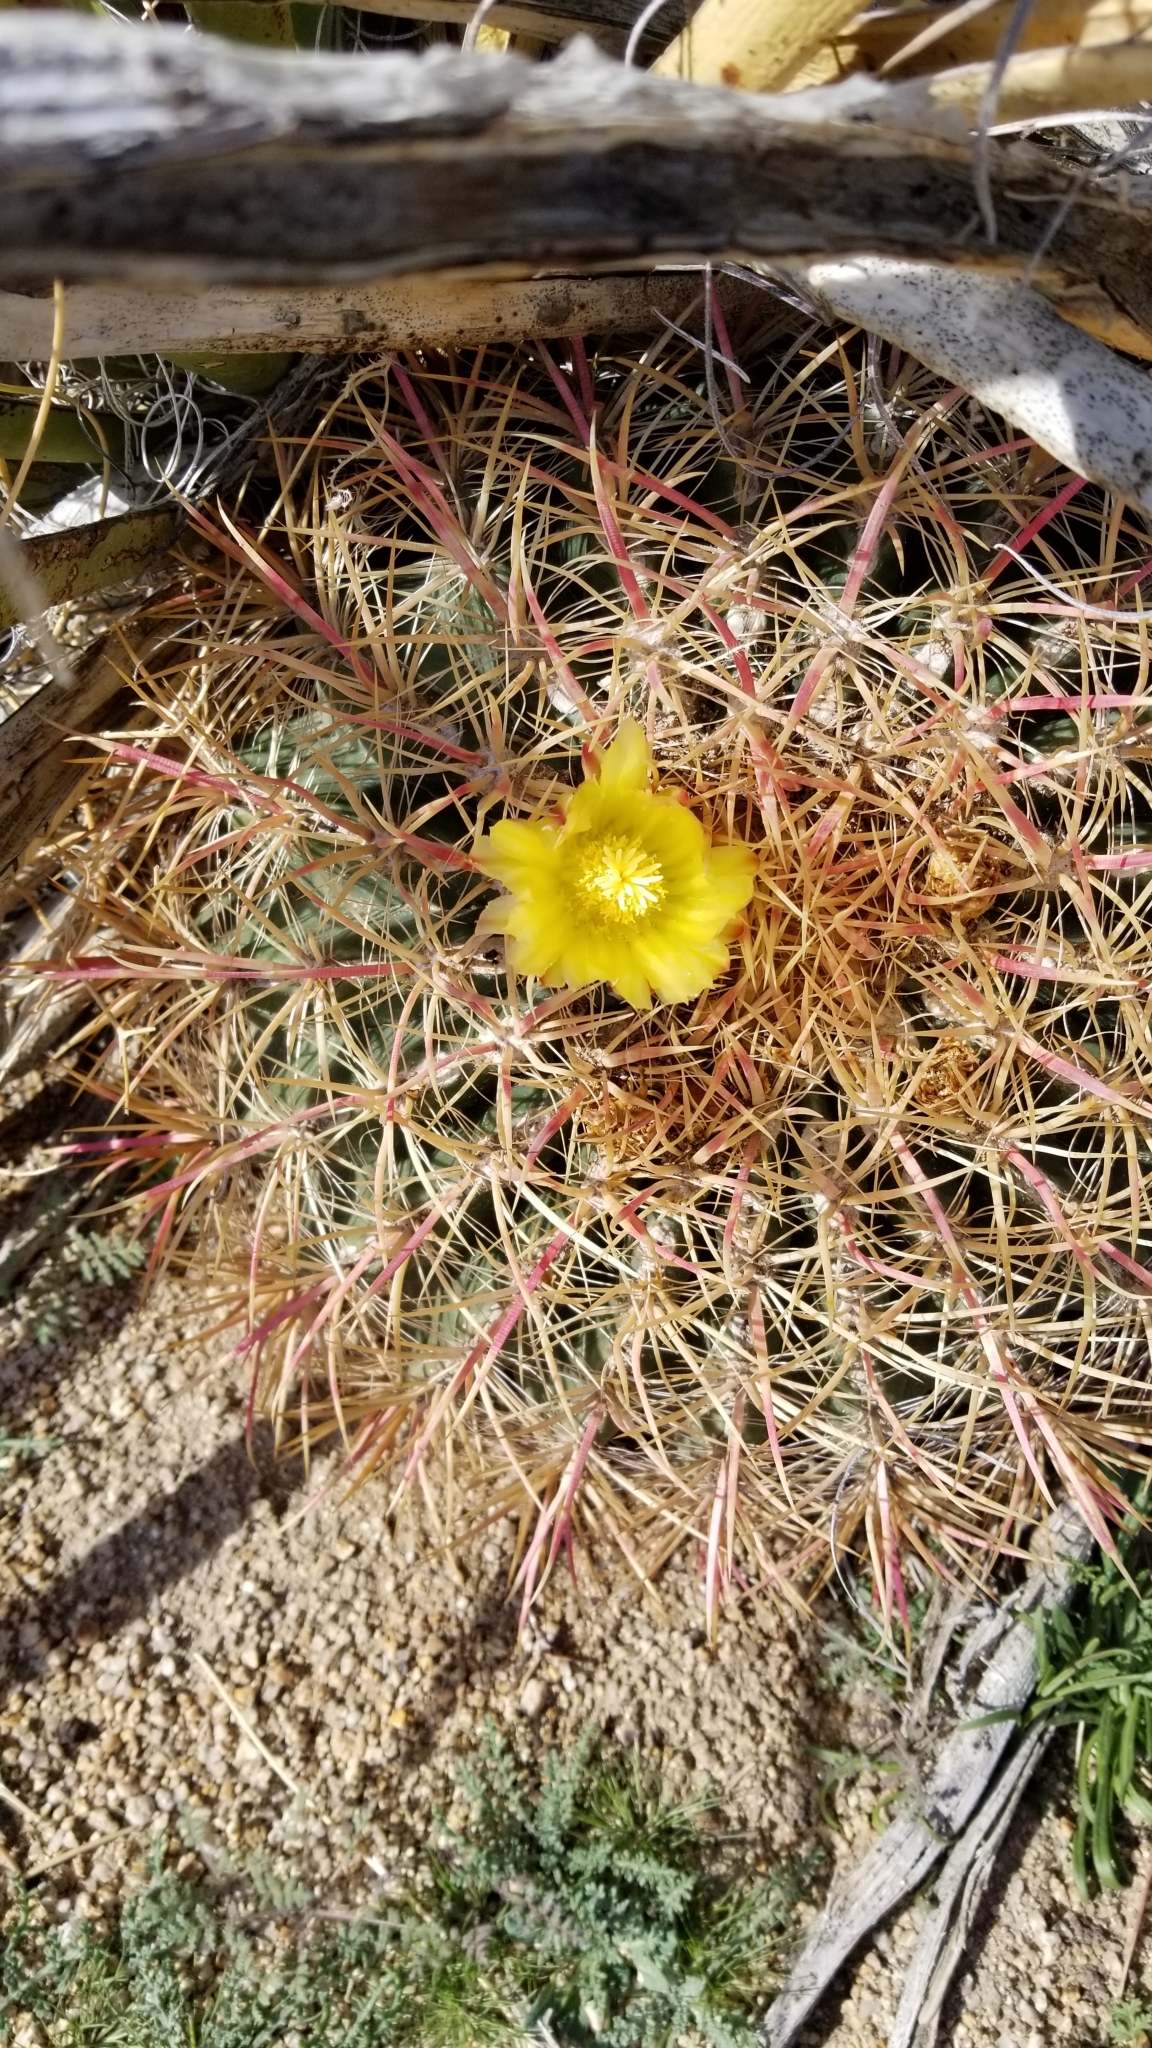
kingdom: Plantae
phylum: Tracheophyta
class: Magnoliopsida
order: Caryophyllales
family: Cactaceae
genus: Ferocactus
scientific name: Ferocactus cylindraceus
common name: California barrel cactus
